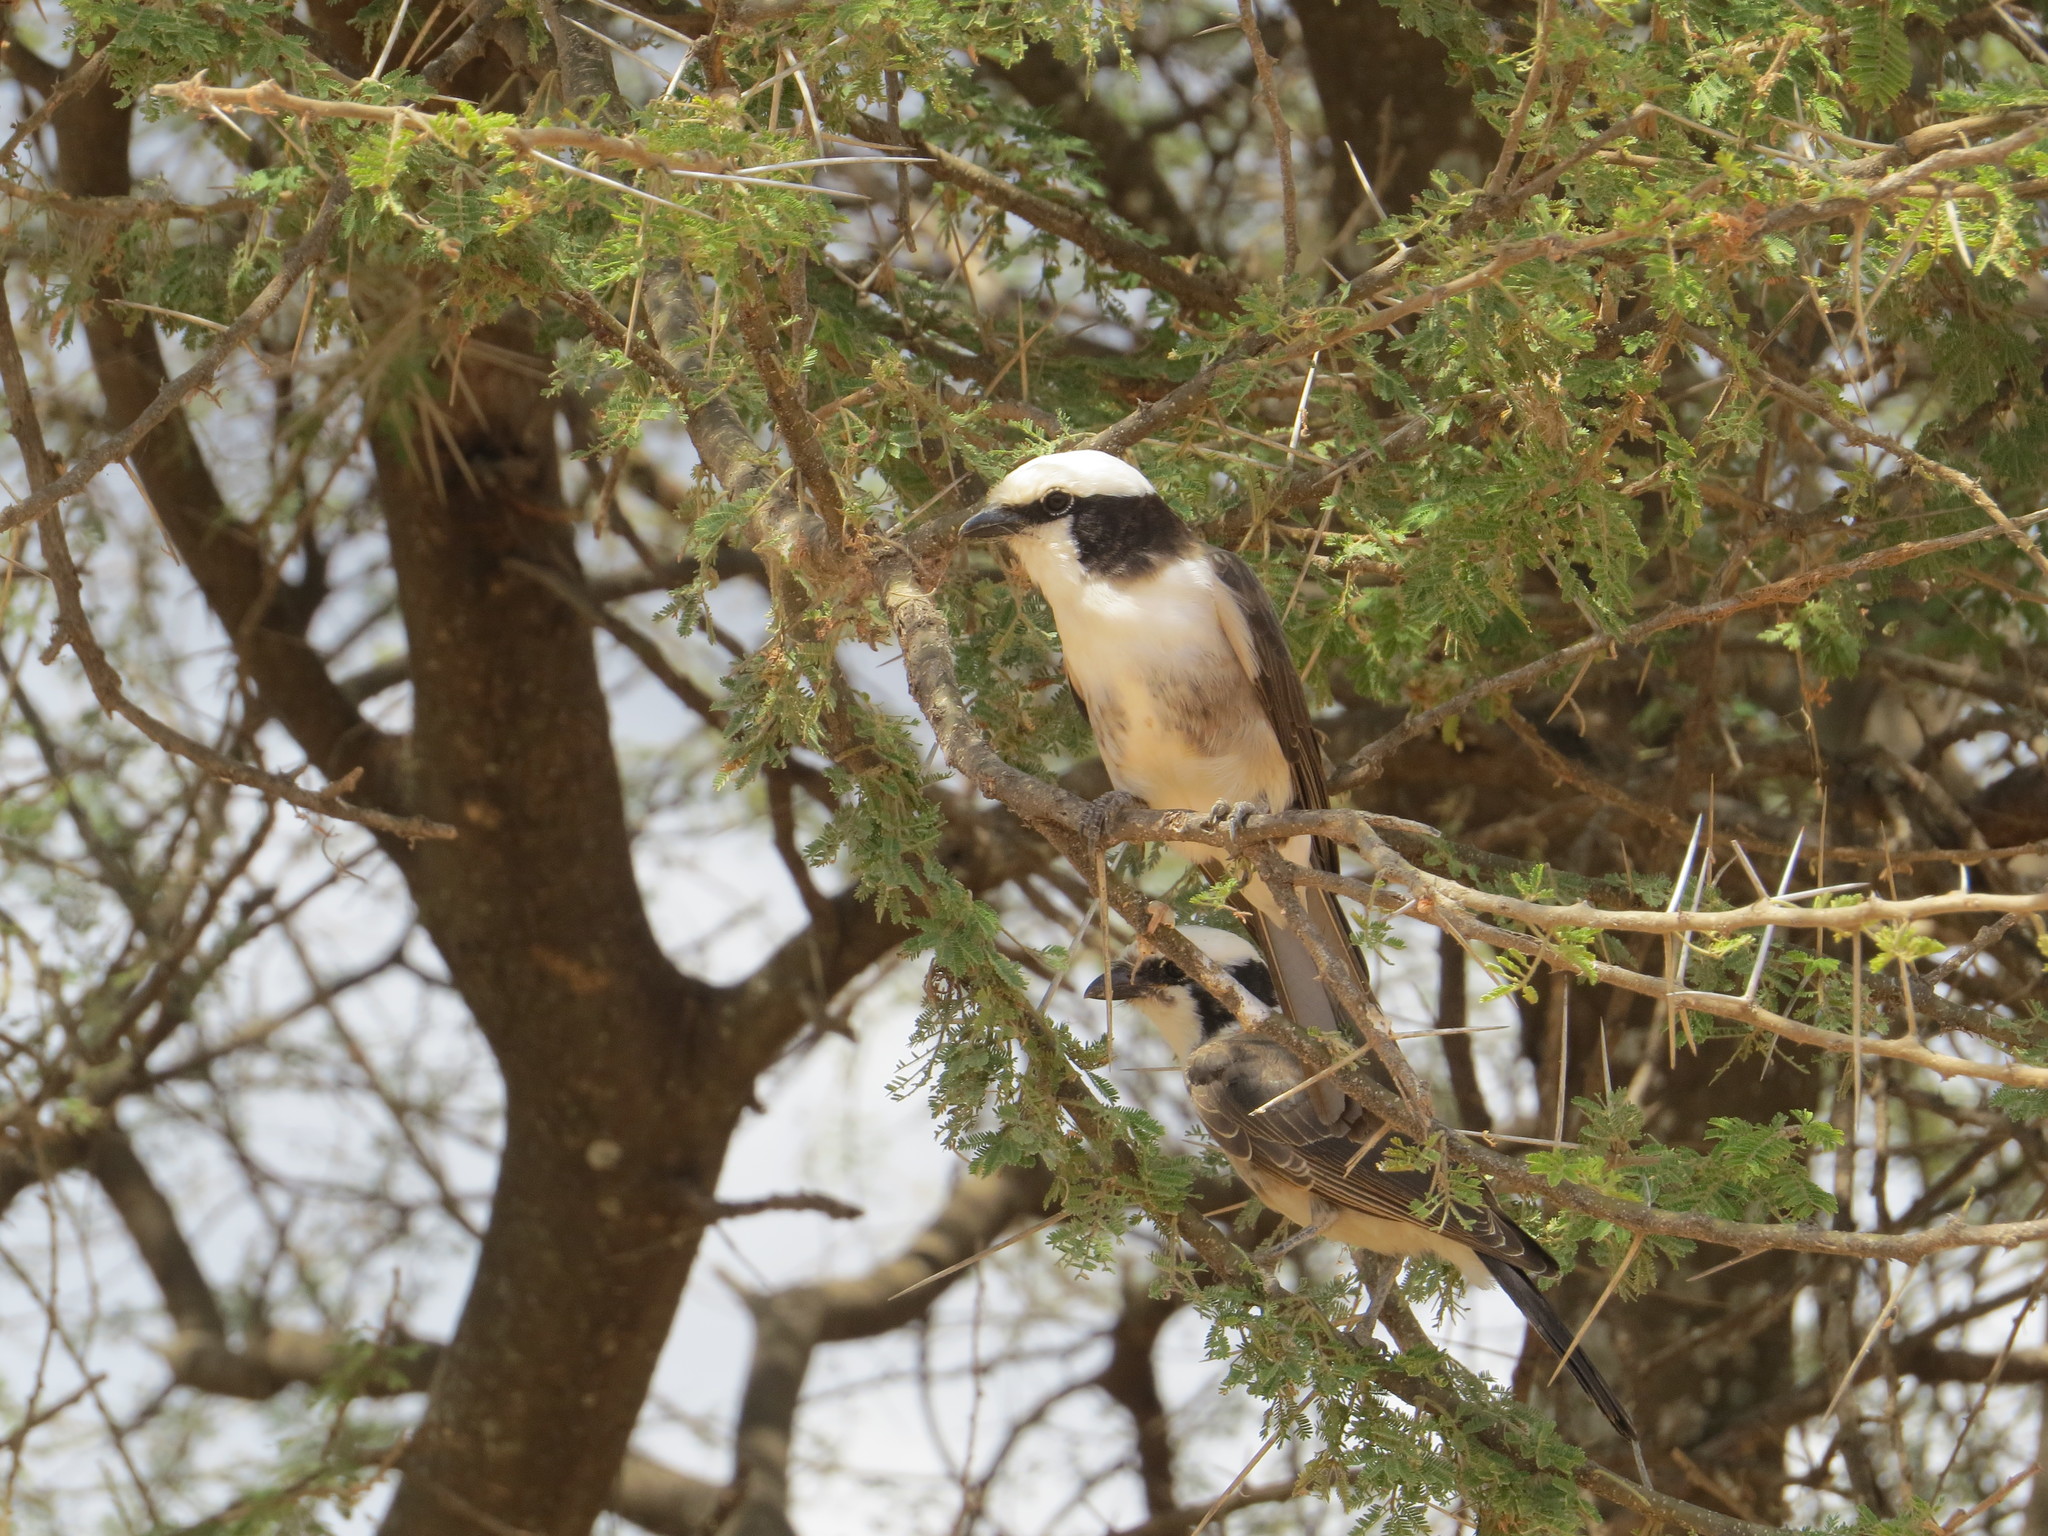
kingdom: Animalia
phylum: Chordata
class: Aves
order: Passeriformes
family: Laniidae
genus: Eurocephalus
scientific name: Eurocephalus ruppelli
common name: Northern white-crowned shrike
